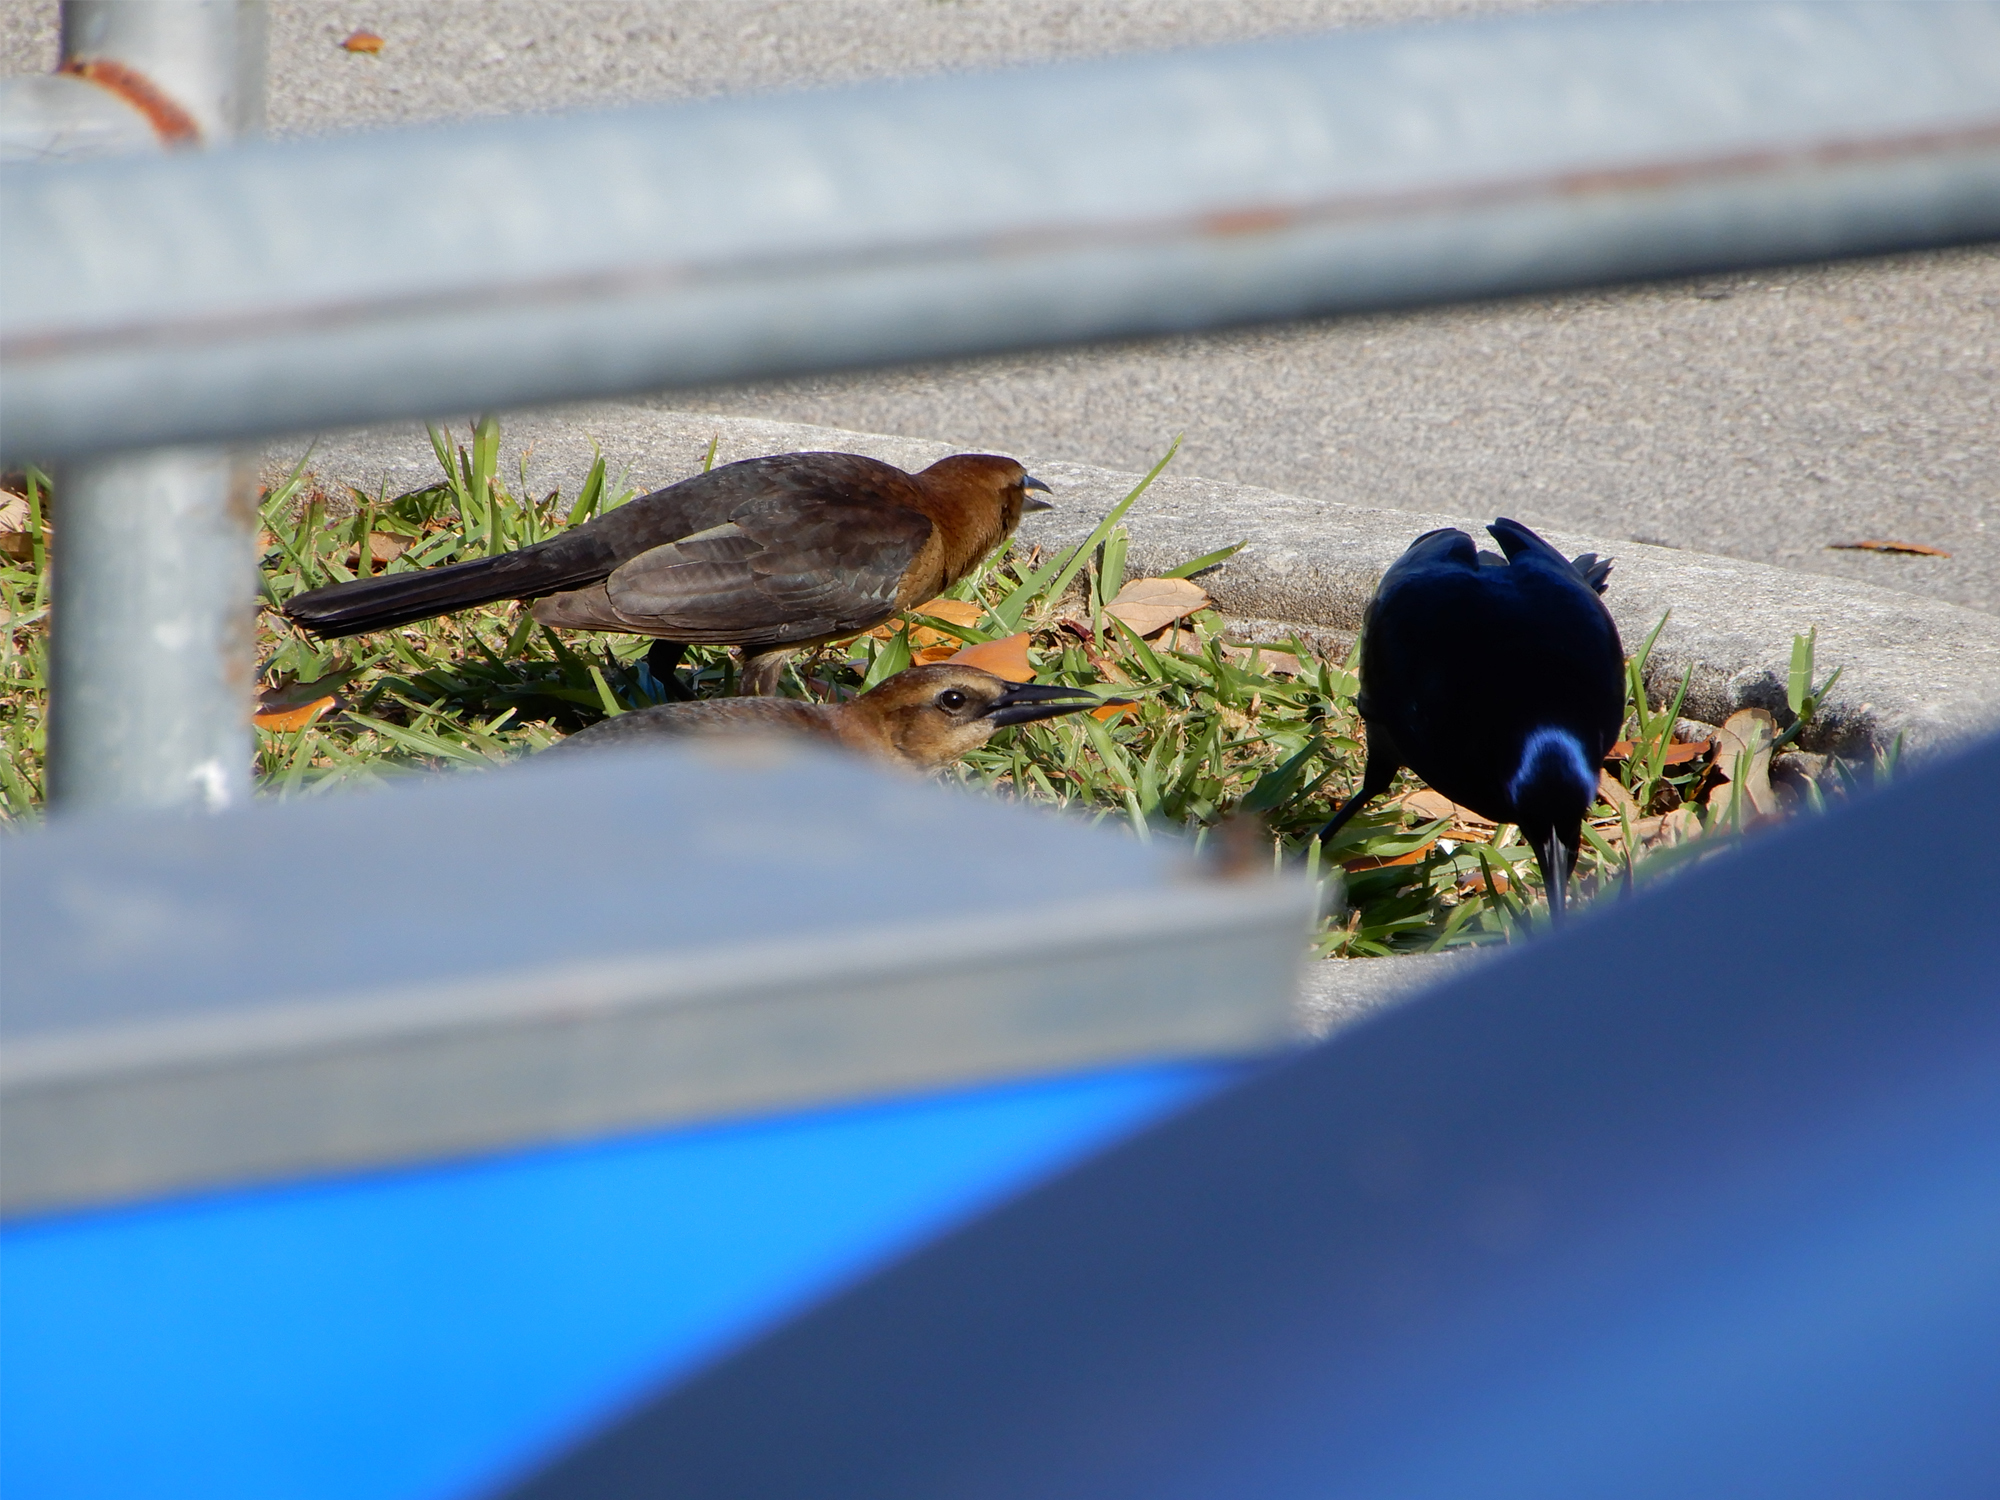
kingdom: Animalia
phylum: Chordata
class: Aves
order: Passeriformes
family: Icteridae
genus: Quiscalus
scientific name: Quiscalus major
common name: Boat-tailed grackle
